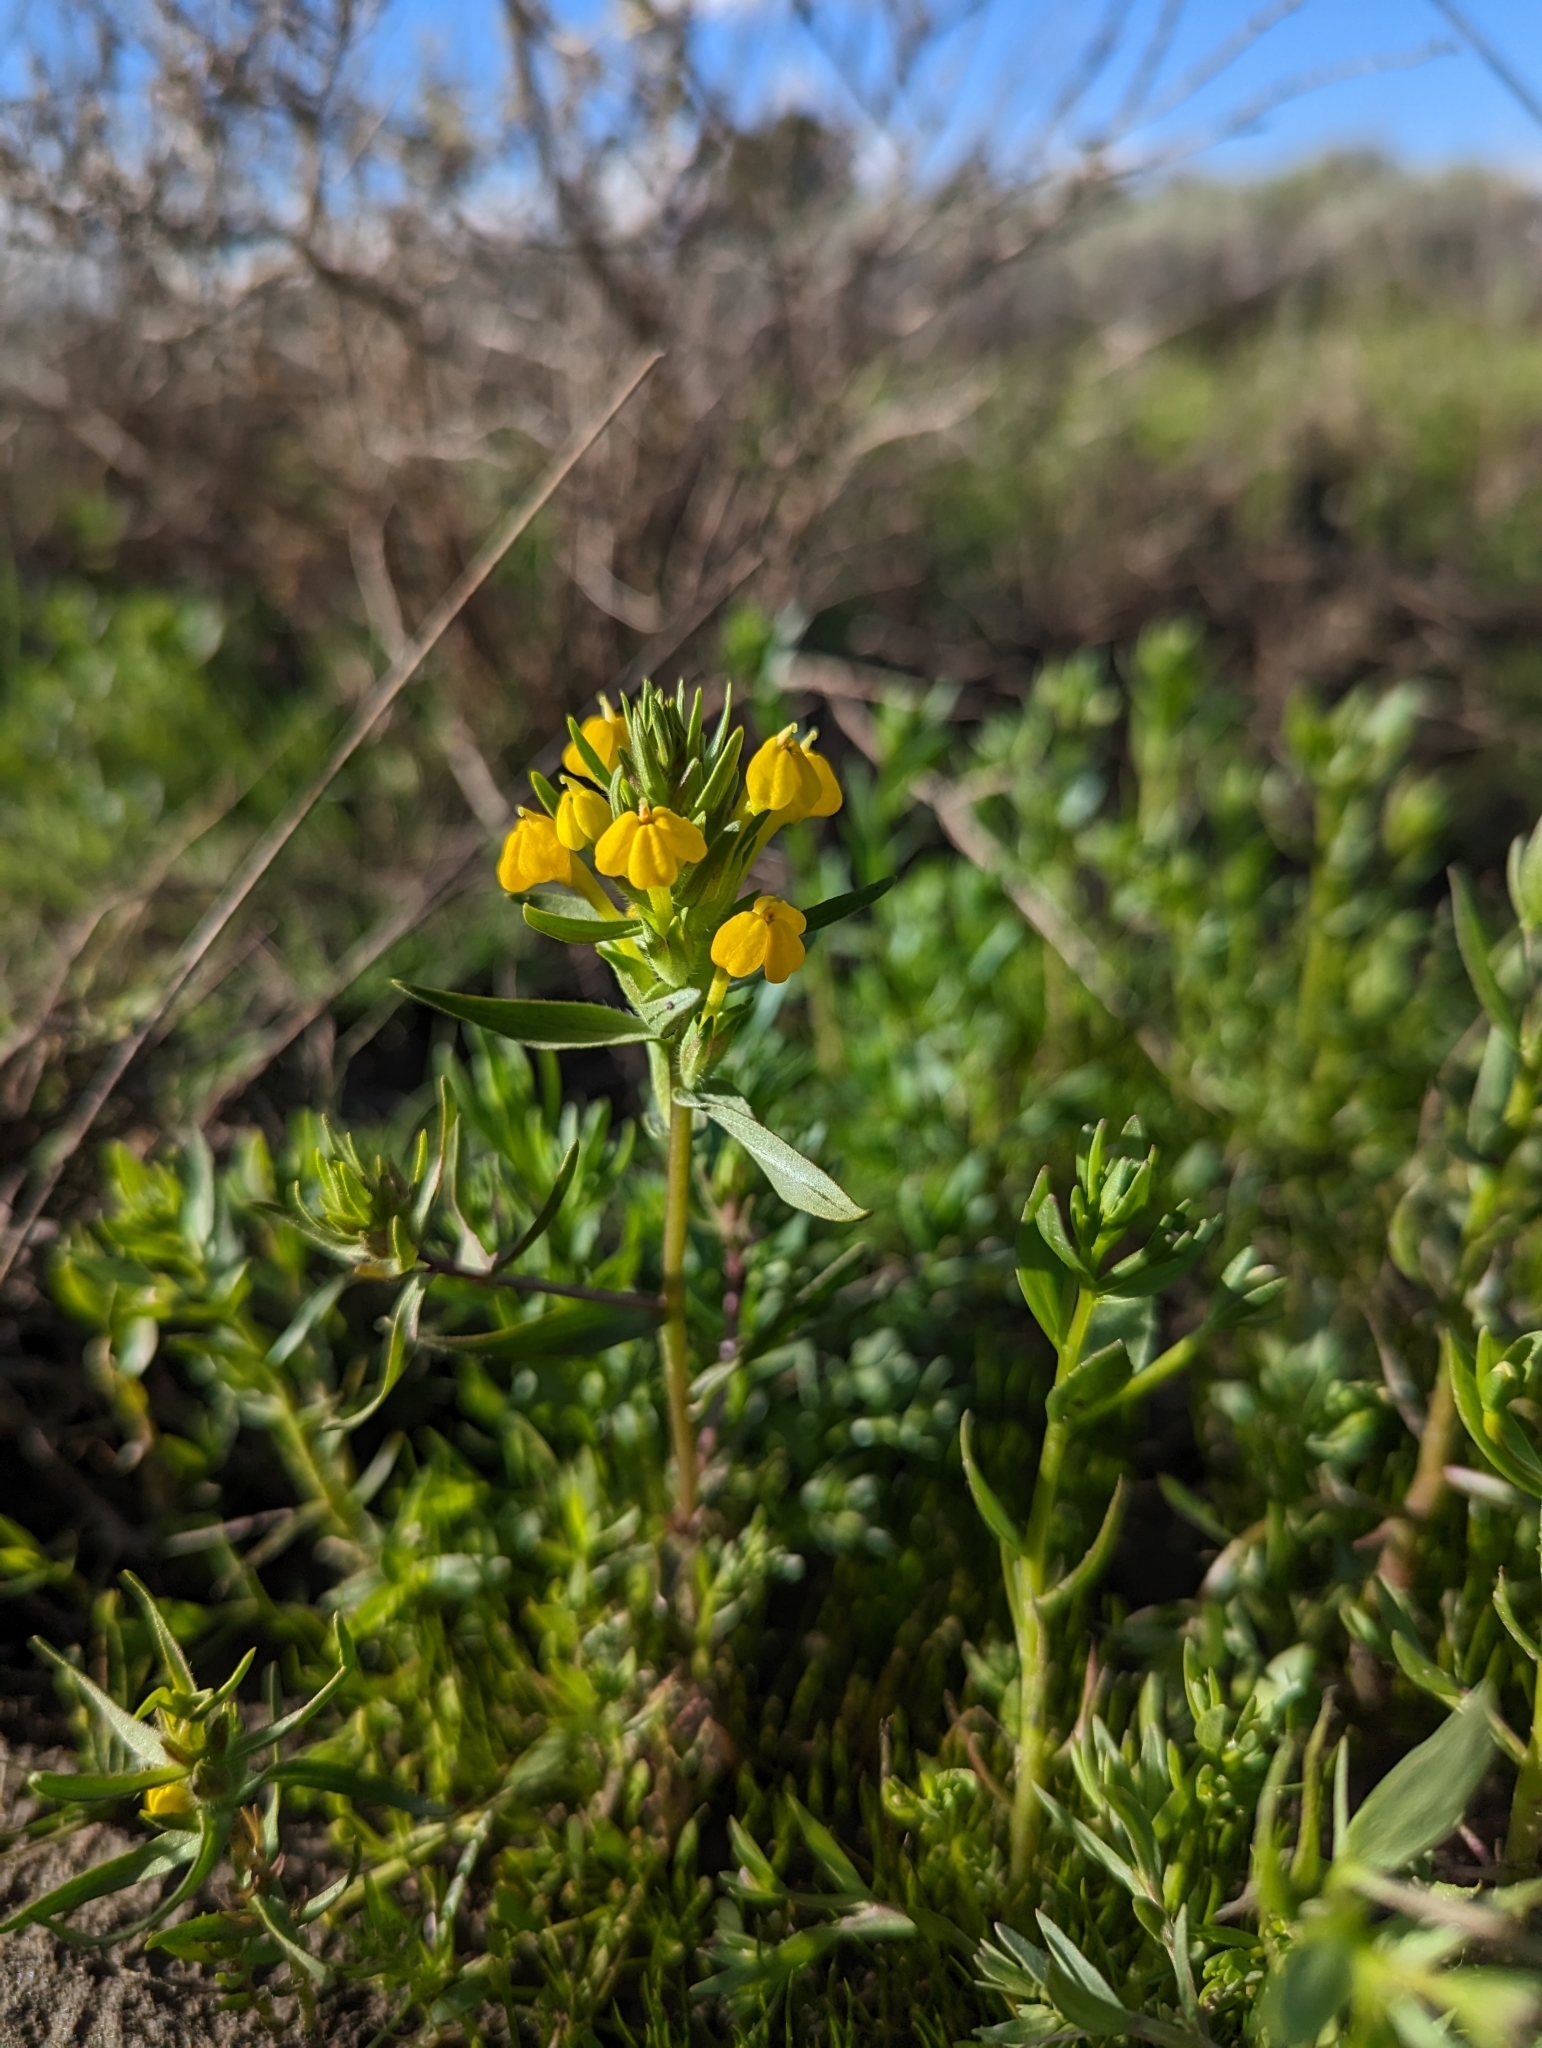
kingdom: Plantae
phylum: Tracheophyta
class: Magnoliopsida
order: Lamiales
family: Orobanchaceae
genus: Castilleja
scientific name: Castilleja campestris
